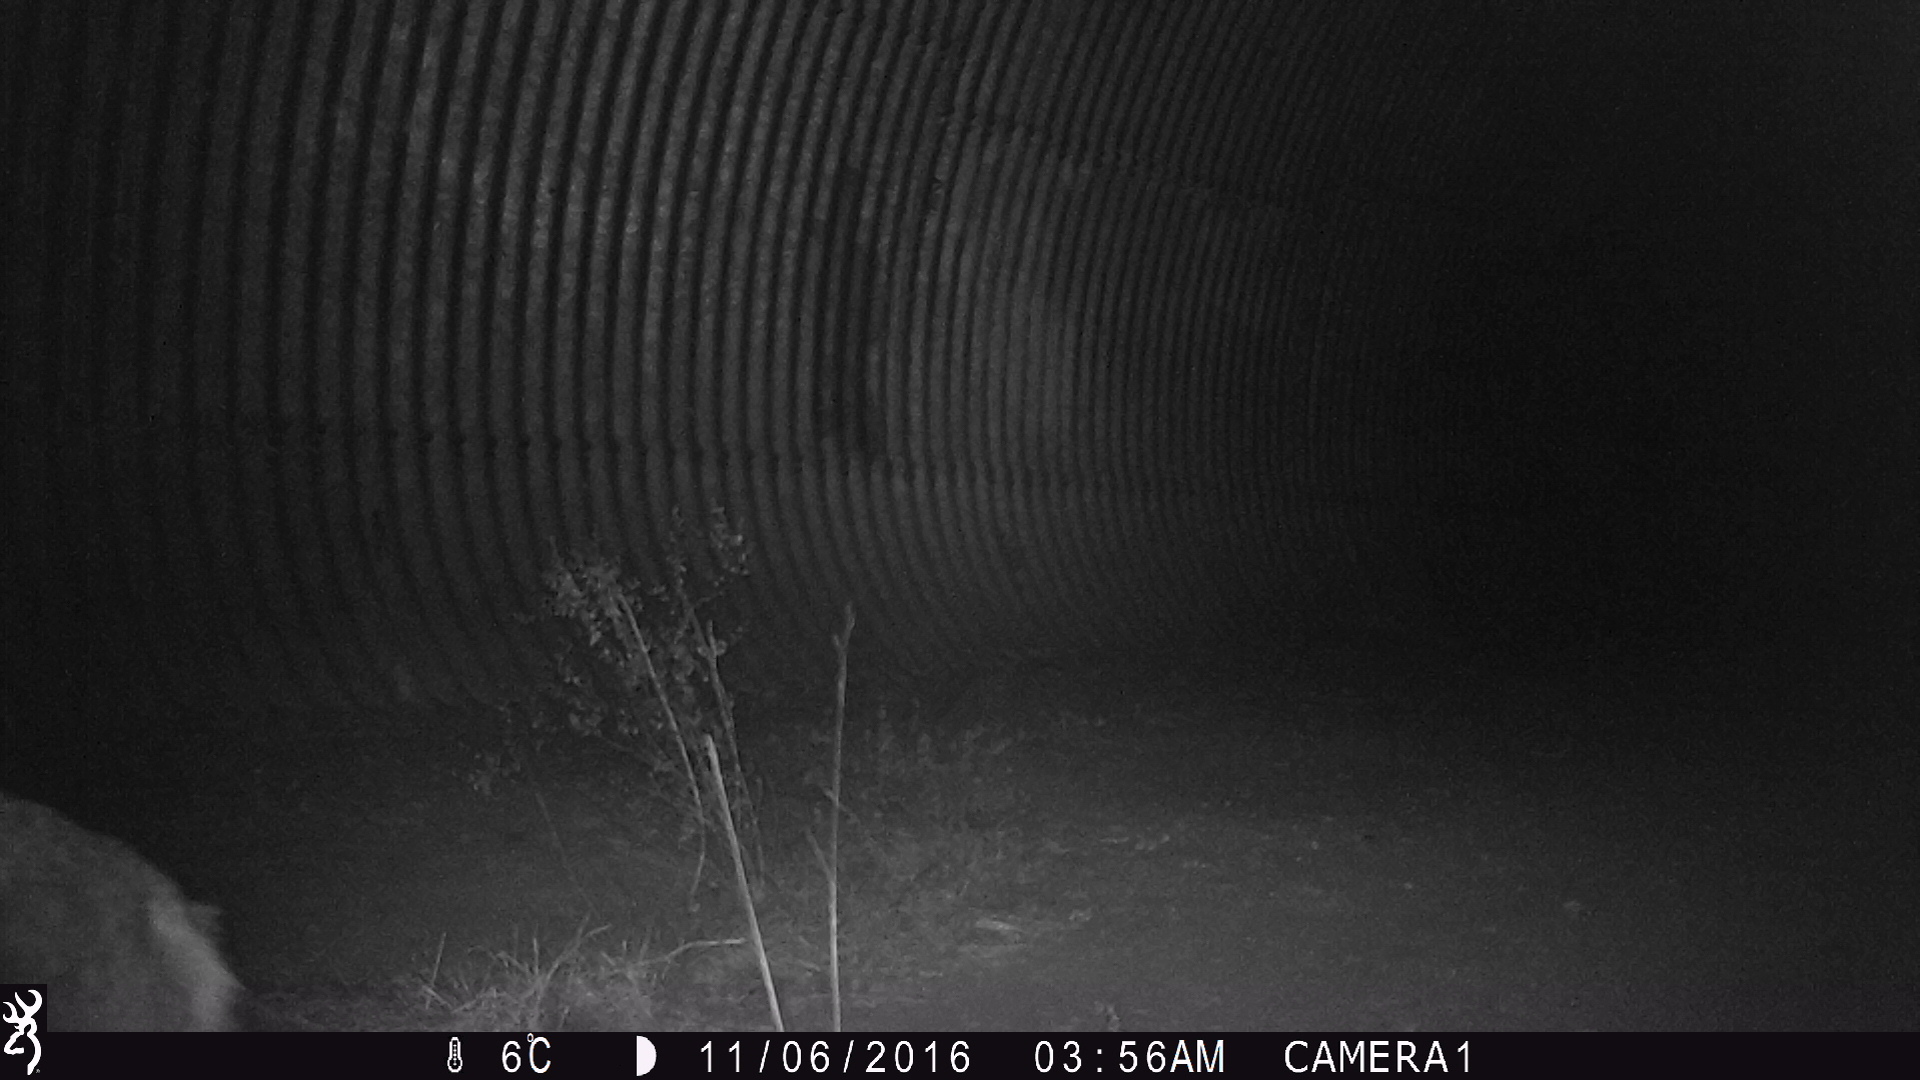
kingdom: Animalia
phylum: Chordata
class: Mammalia
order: Carnivora
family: Canidae
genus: Canis
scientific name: Canis latrans
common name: Coyote
